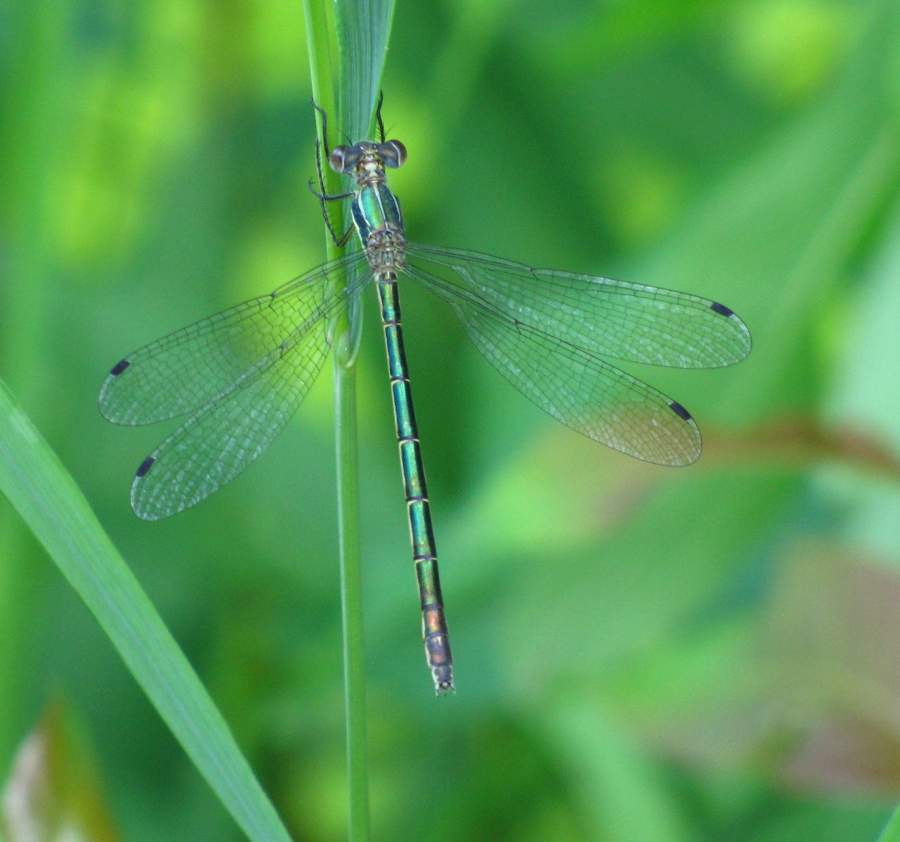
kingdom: Animalia
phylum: Arthropoda
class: Insecta
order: Odonata
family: Lestidae
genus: Lestes
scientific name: Lestes dryas
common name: Scarce emerald damselfly
